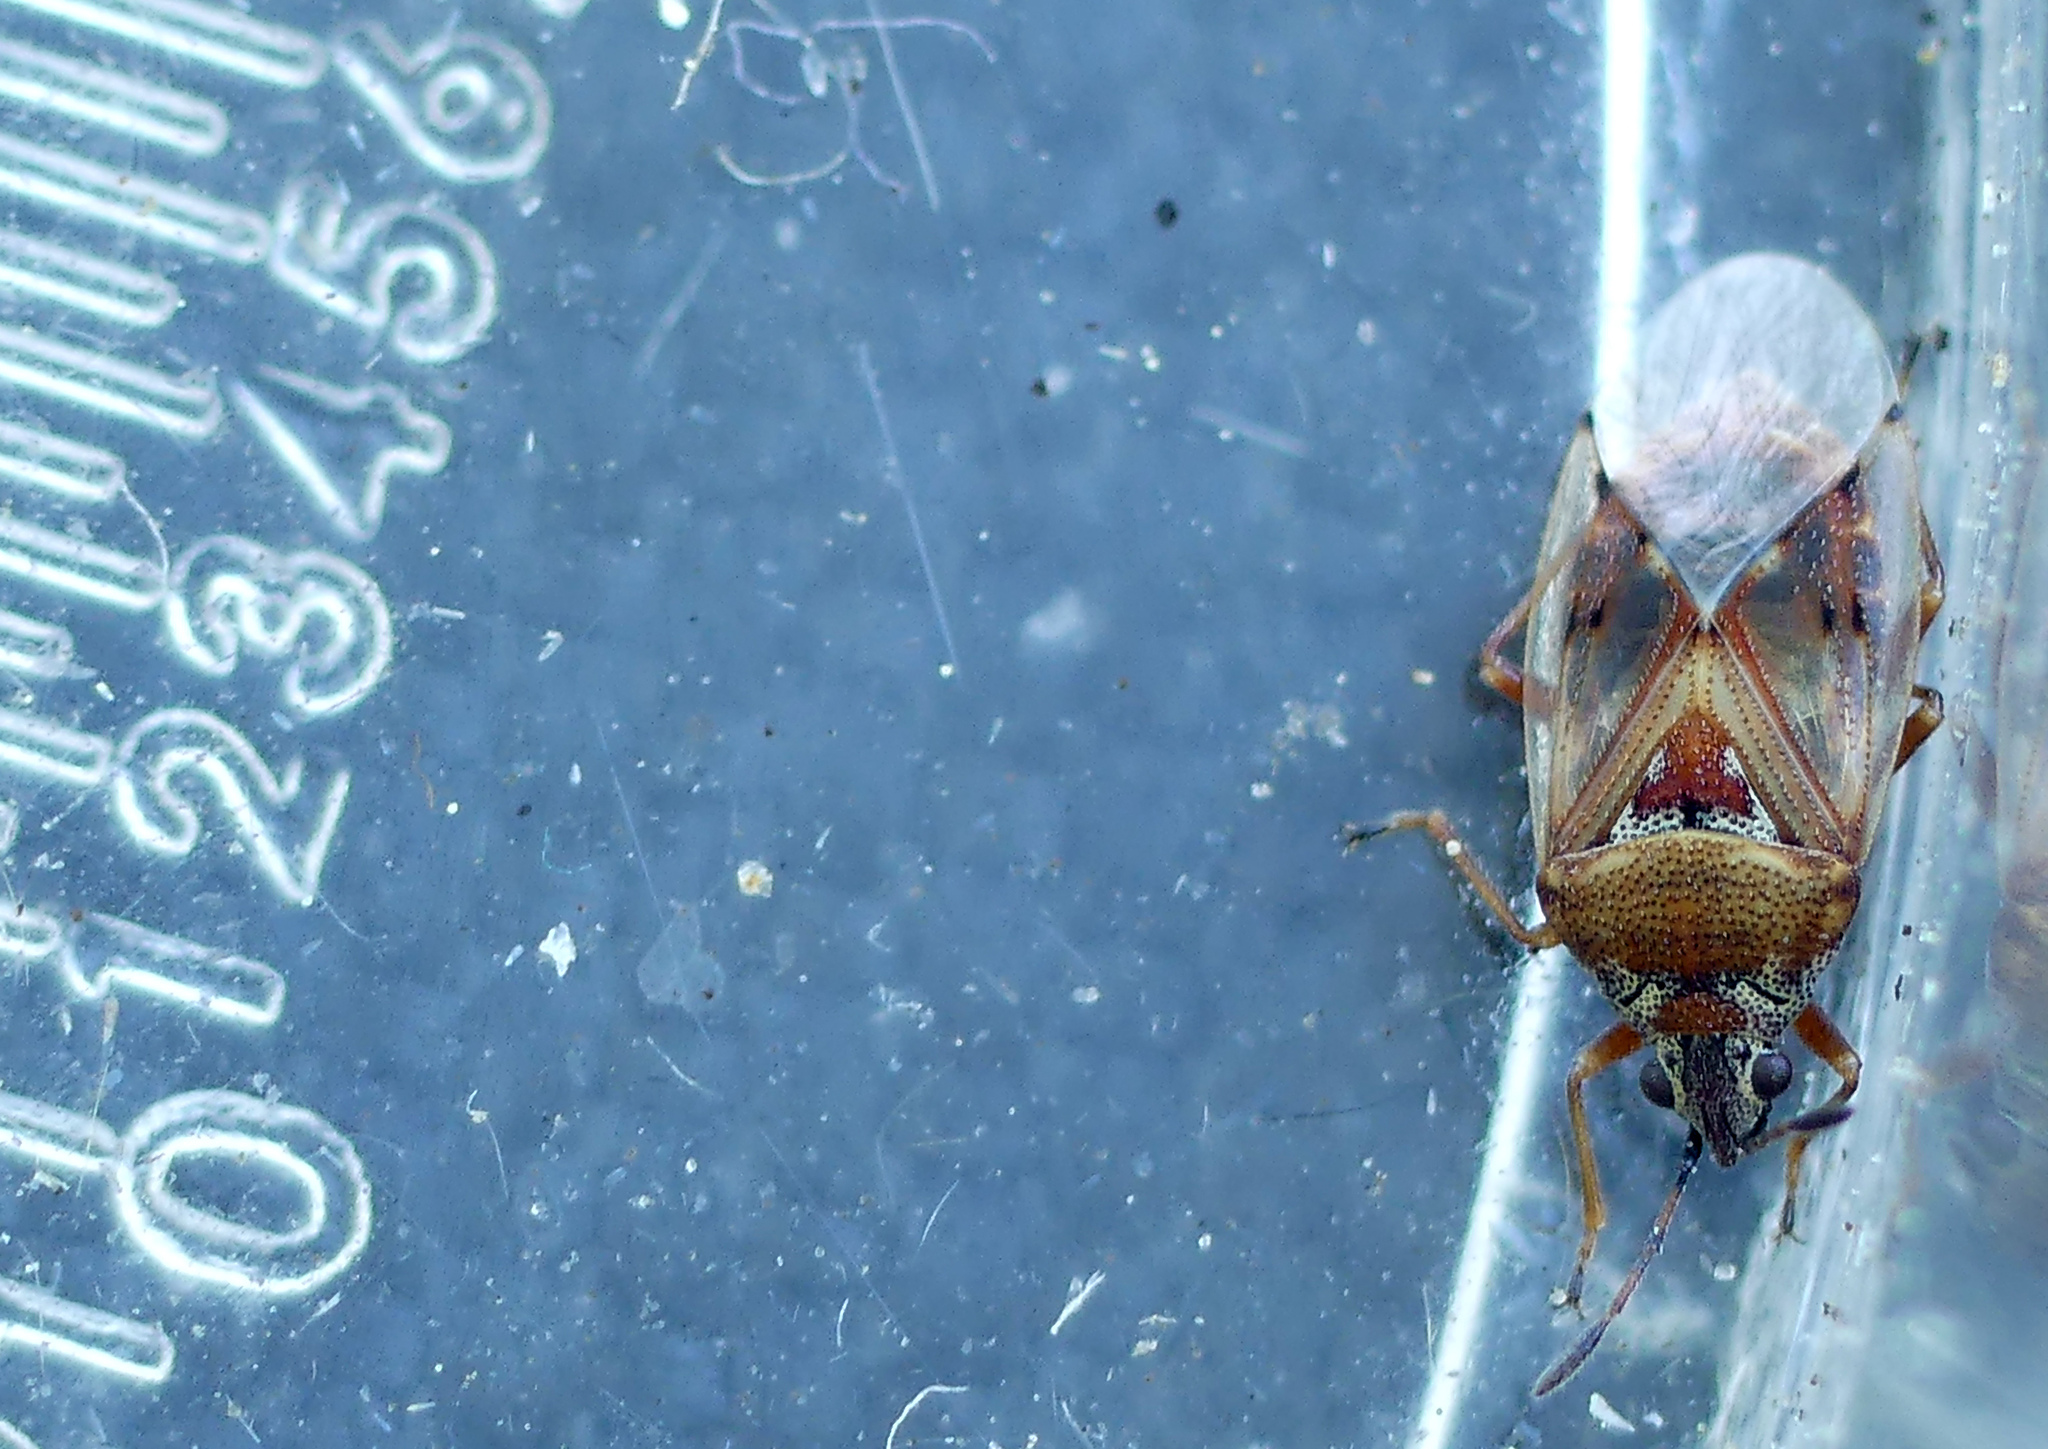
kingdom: Animalia
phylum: Arthropoda
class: Insecta
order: Hemiptera
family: Lygaeidae
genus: Kleidocerys
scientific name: Kleidocerys resedae
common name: Birch catkin bug
